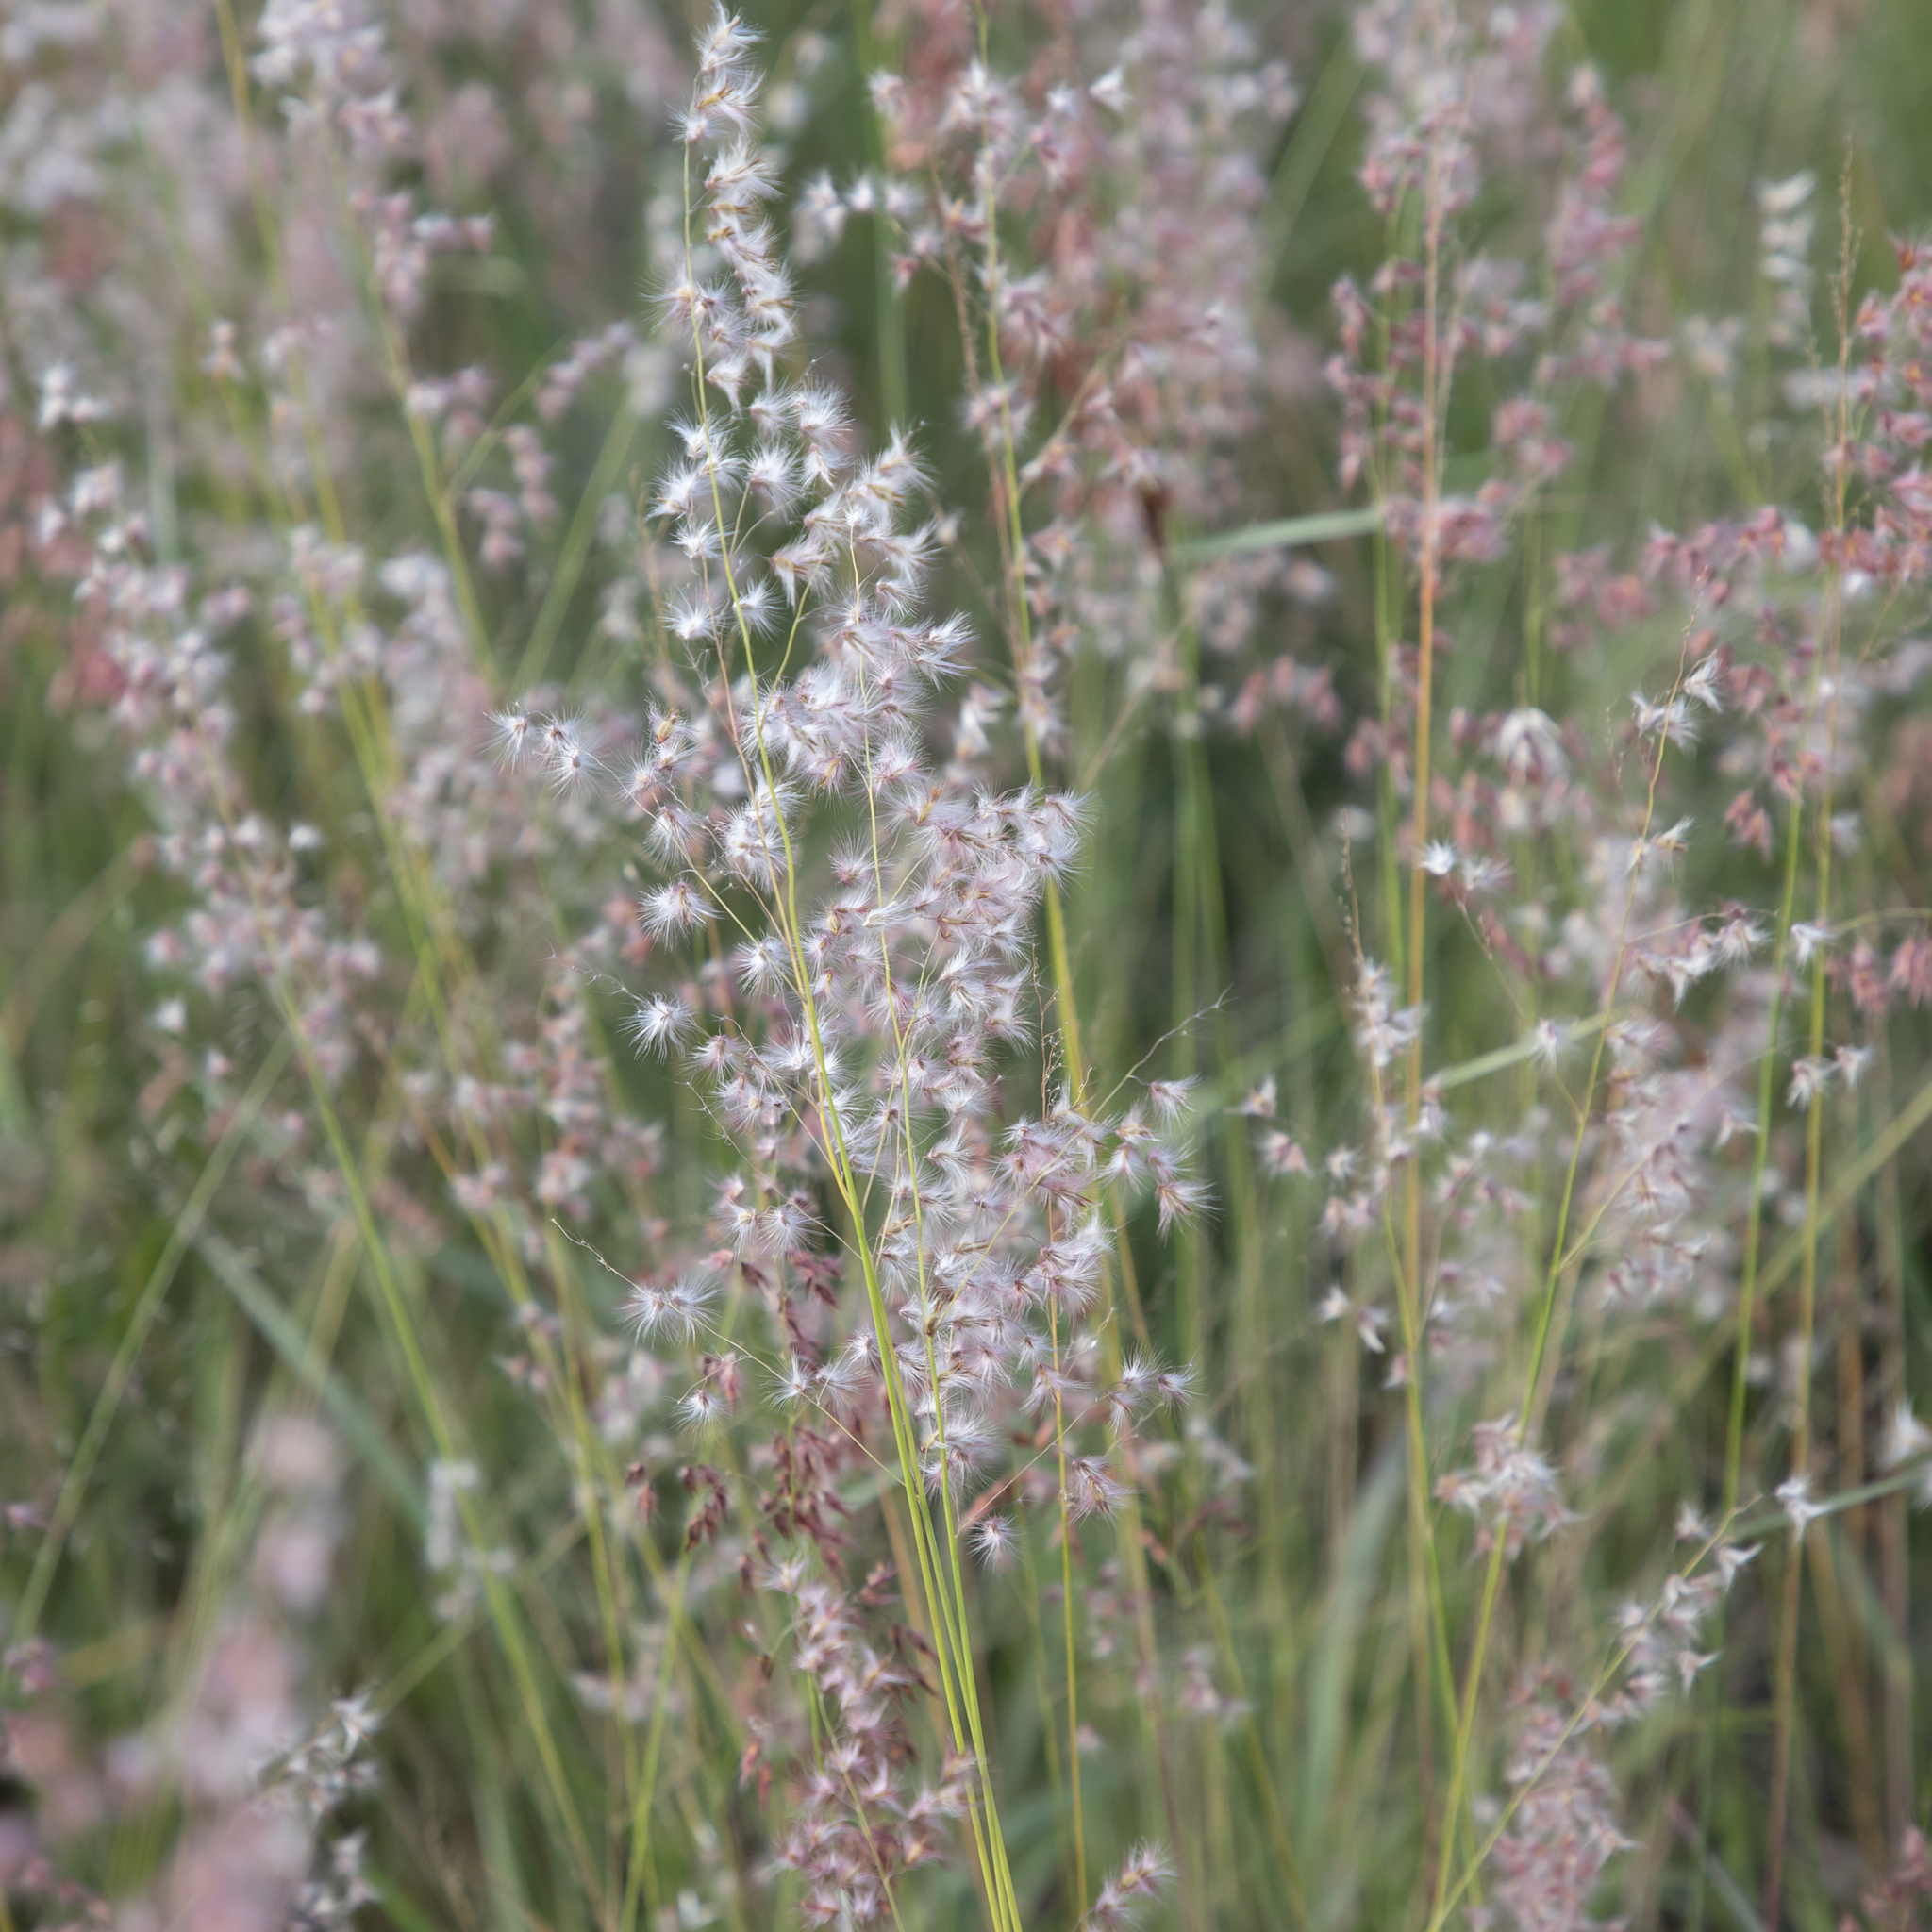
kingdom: Plantae
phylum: Tracheophyta
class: Liliopsida
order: Poales
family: Poaceae
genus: Melinis
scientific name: Melinis repens
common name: Rose natal grass
